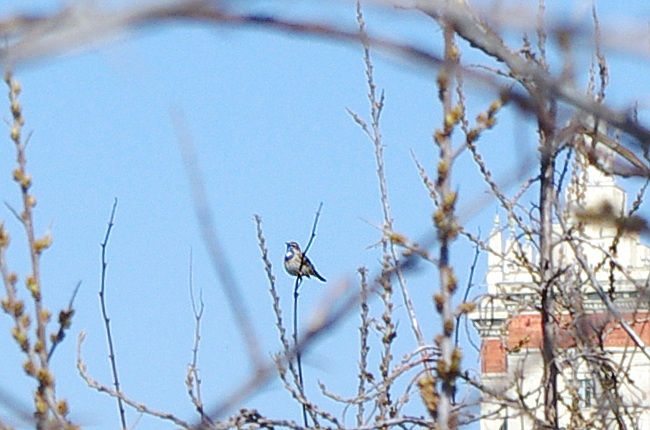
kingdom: Animalia
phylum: Chordata
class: Aves
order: Passeriformes
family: Muscicapidae
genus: Luscinia
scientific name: Luscinia svecica
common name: Bluethroat
